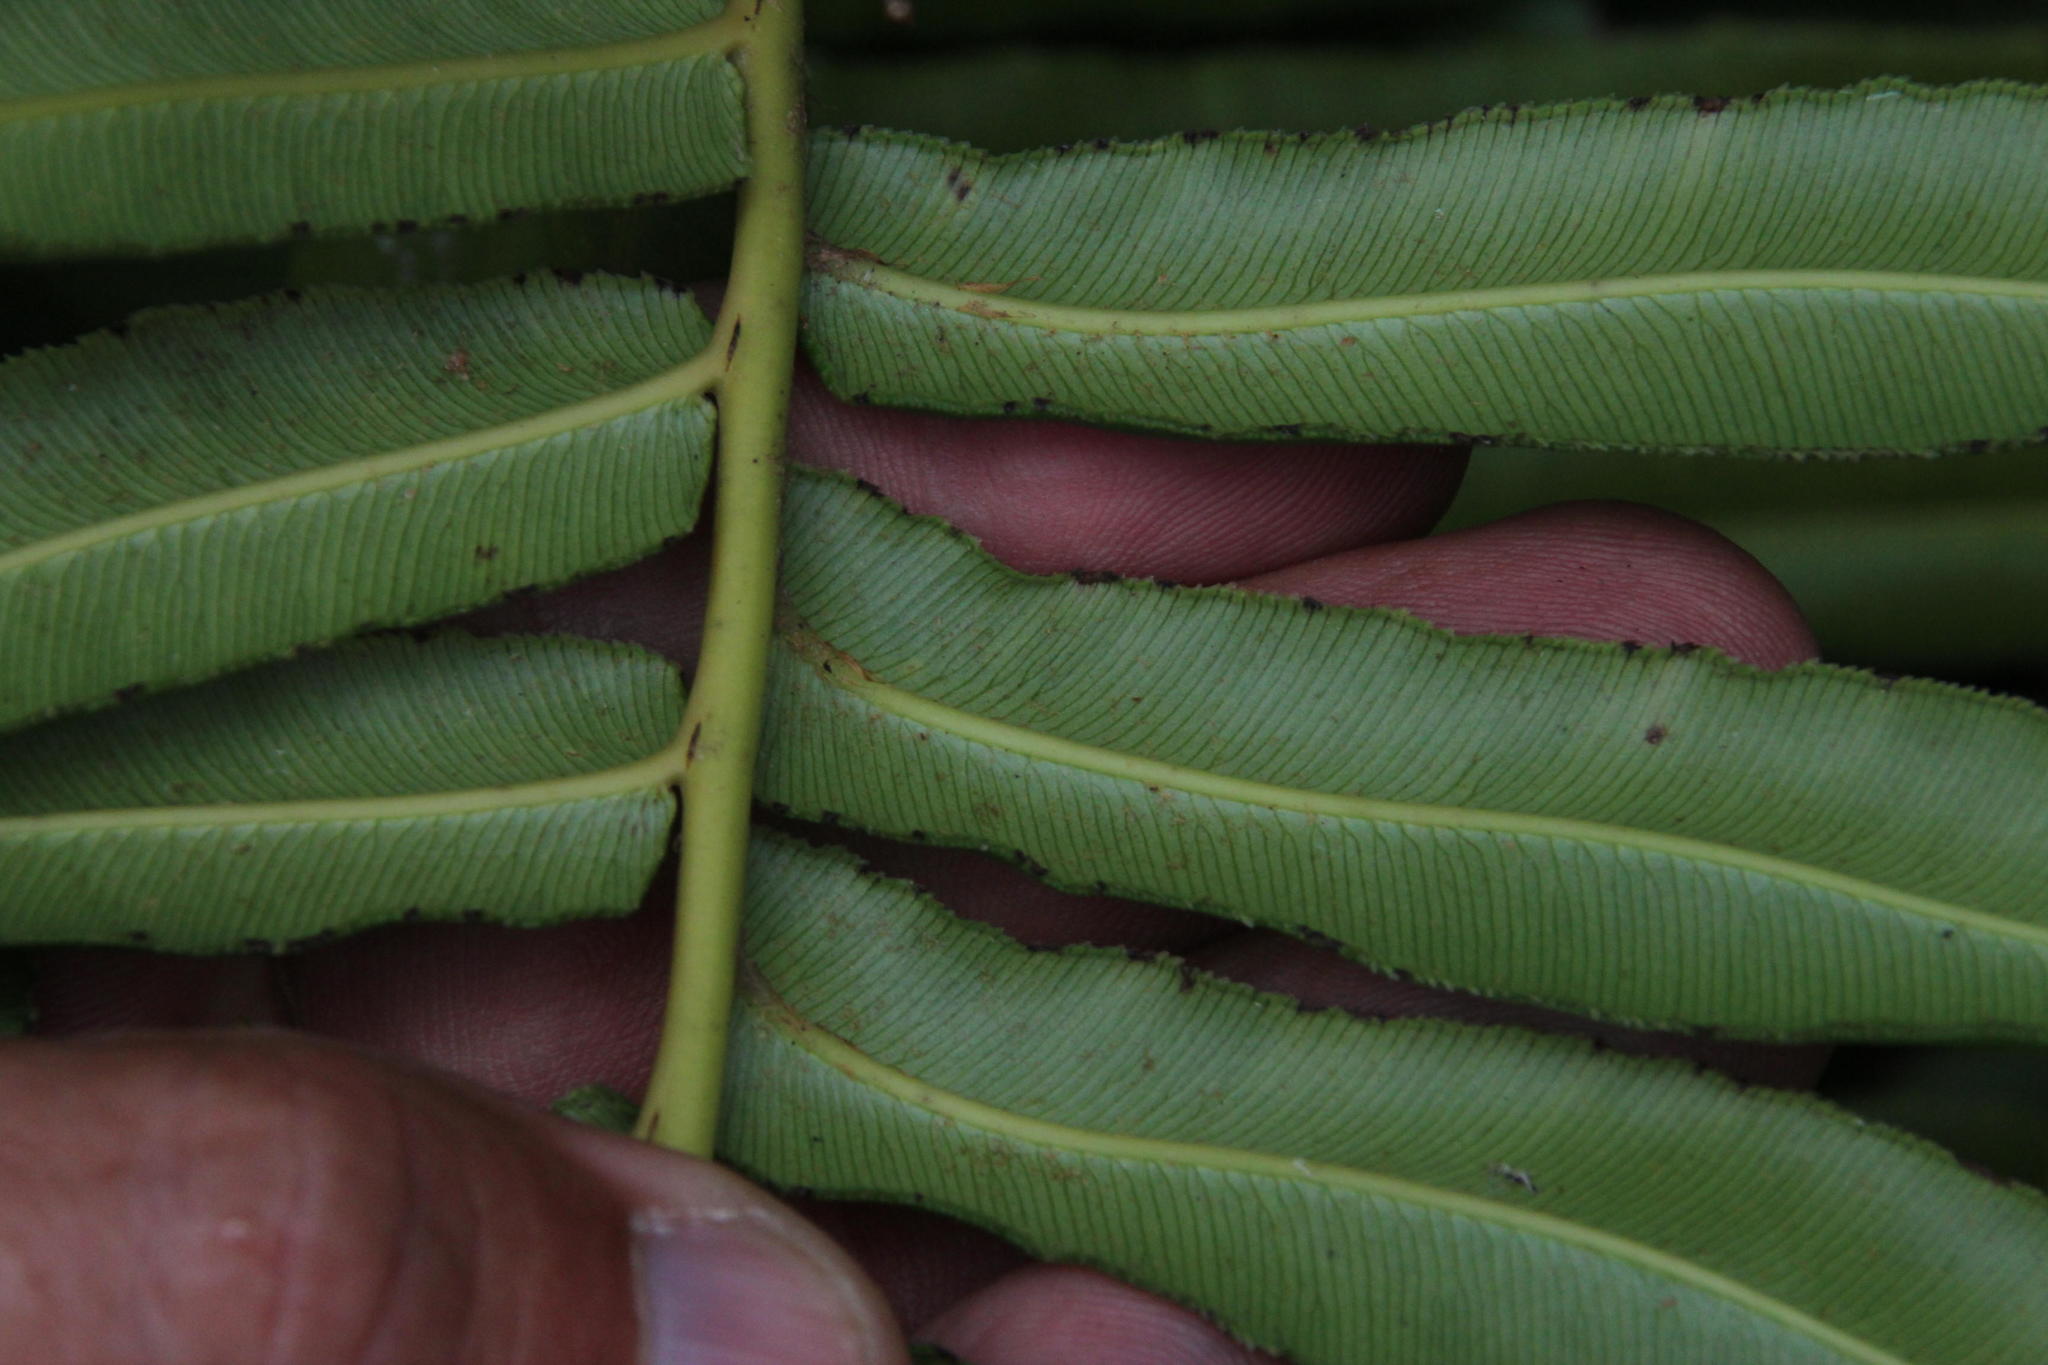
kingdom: Plantae
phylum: Tracheophyta
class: Polypodiopsida
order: Polypodiales
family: Blechnaceae
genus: Parablechnum
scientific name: Parablechnum chilense
